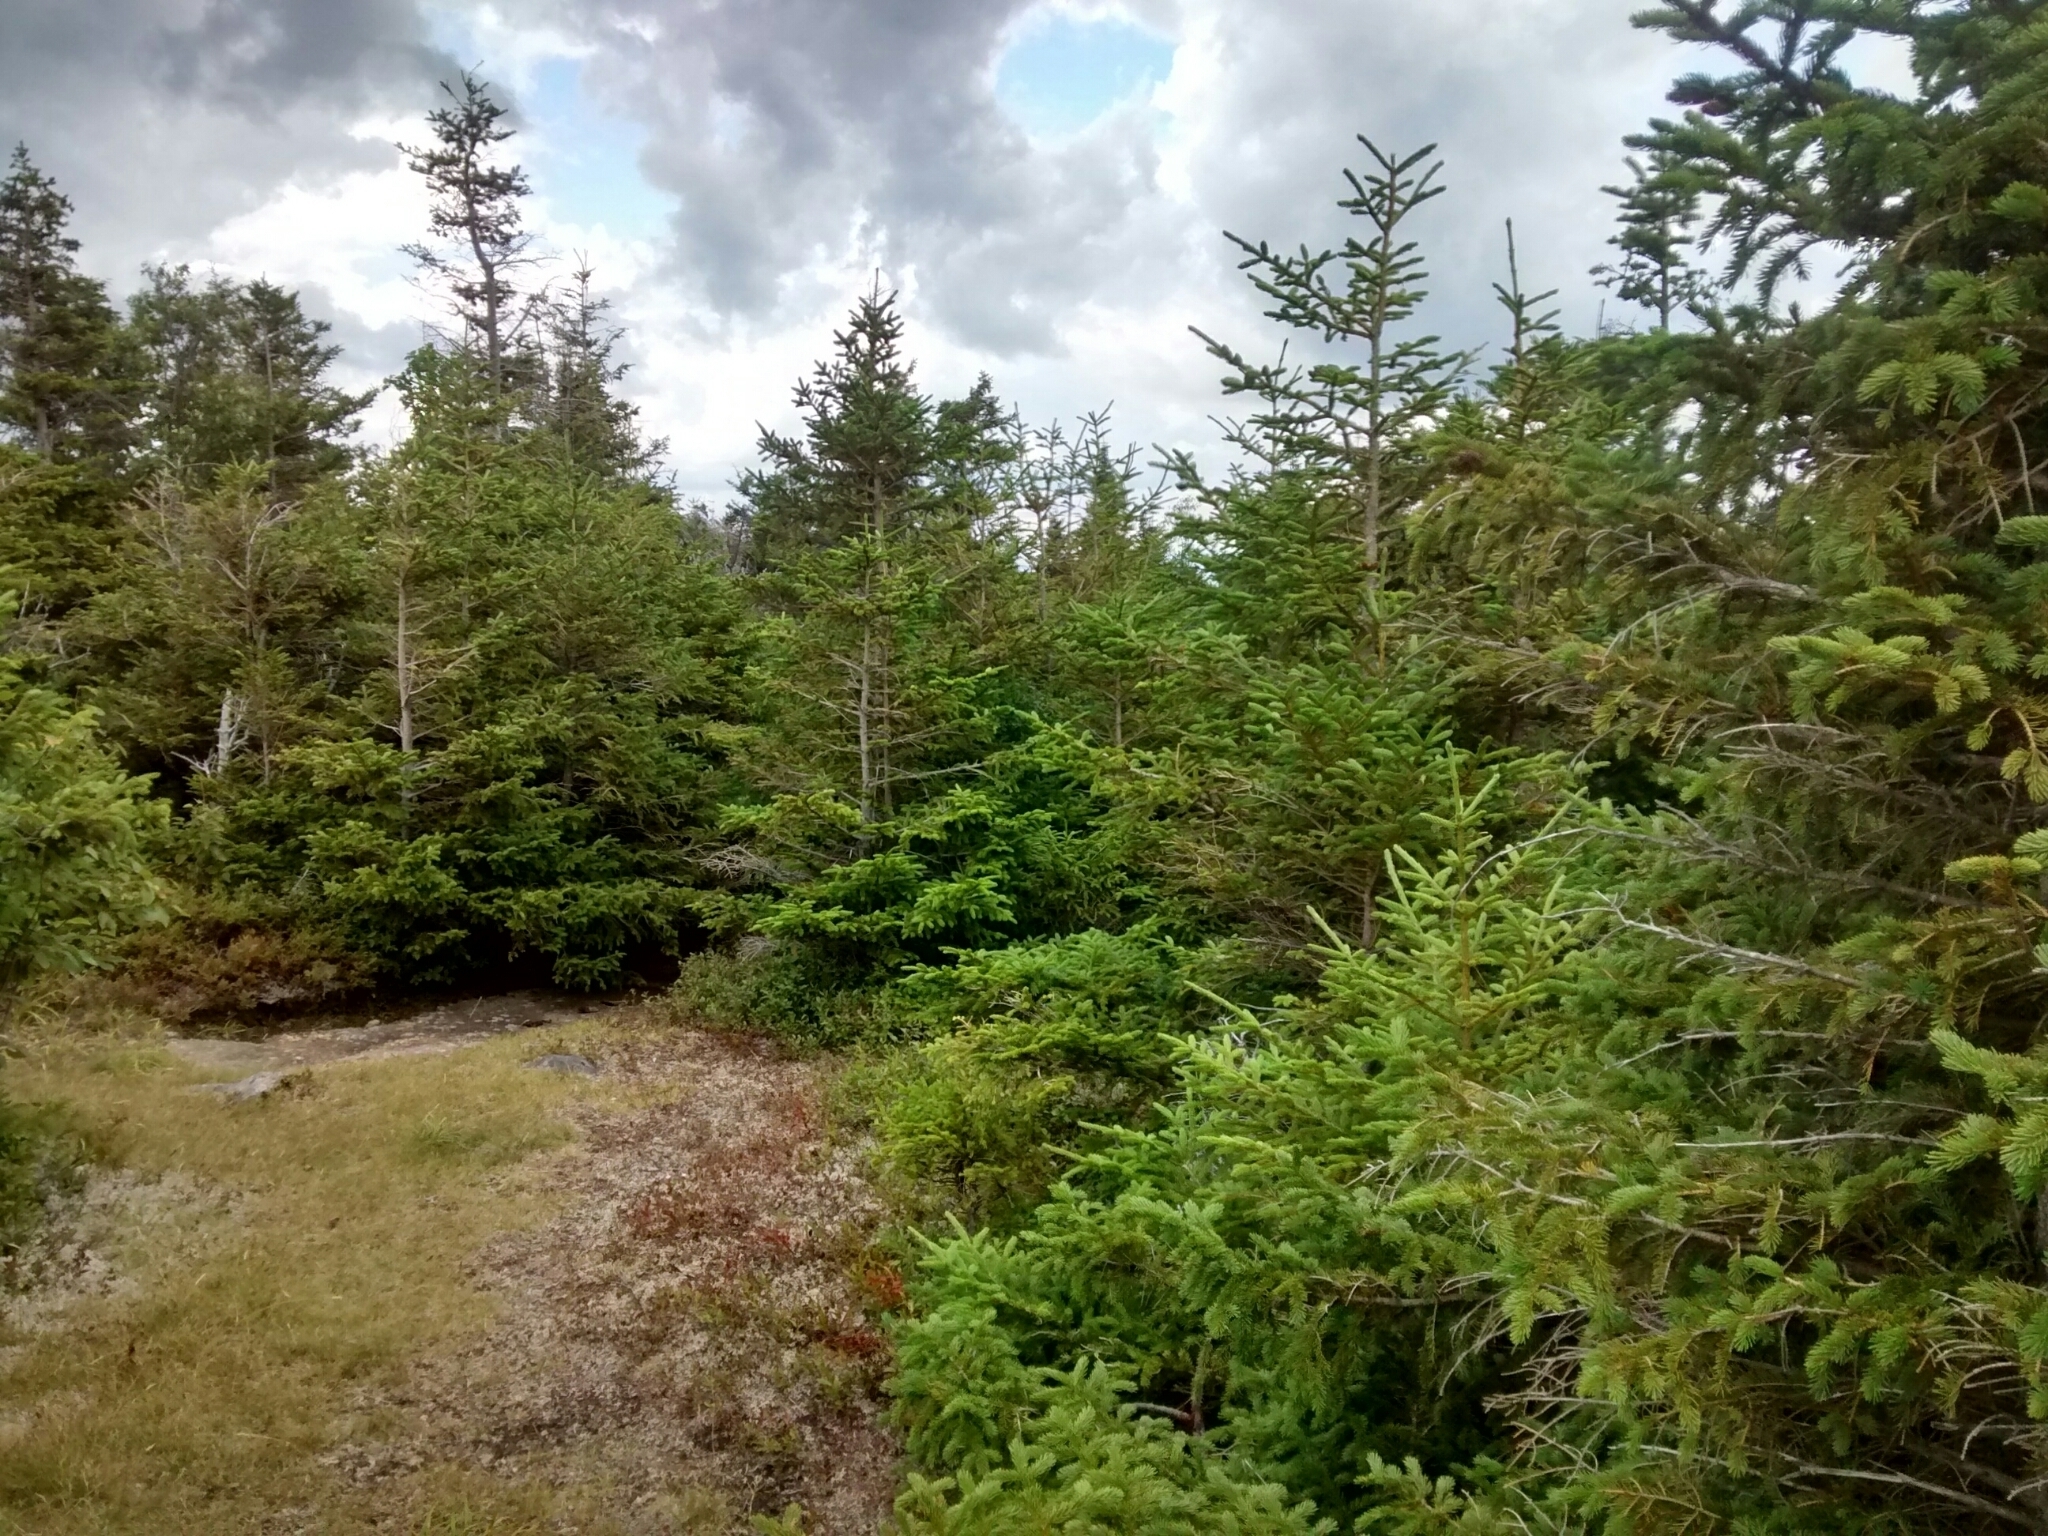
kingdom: Plantae
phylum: Tracheophyta
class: Pinopsida
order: Pinales
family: Pinaceae
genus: Abies
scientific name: Abies balsamea
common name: Balsam fir
